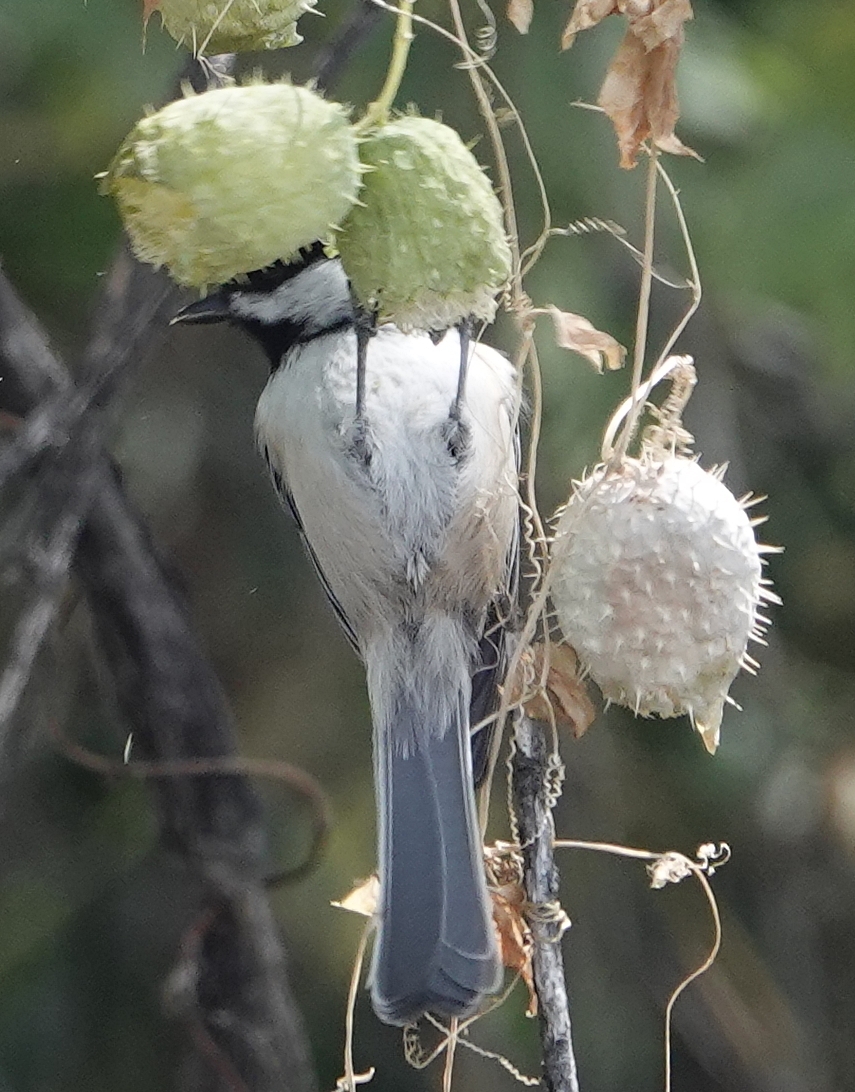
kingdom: Animalia
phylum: Chordata
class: Aves
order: Passeriformes
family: Paridae
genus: Poecile
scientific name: Poecile atricapillus
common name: Black-capped chickadee
